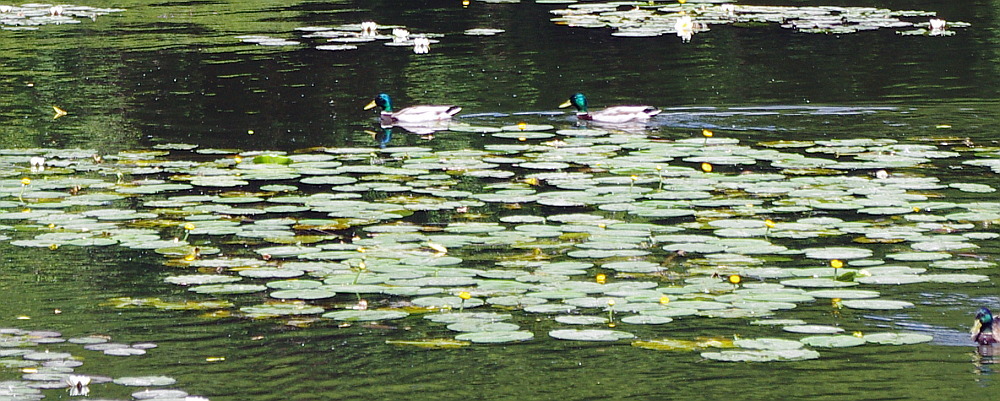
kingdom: Plantae
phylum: Tracheophyta
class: Magnoliopsida
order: Nymphaeales
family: Nymphaeaceae
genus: Nuphar
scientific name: Nuphar lutea
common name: Yellow water-lily
